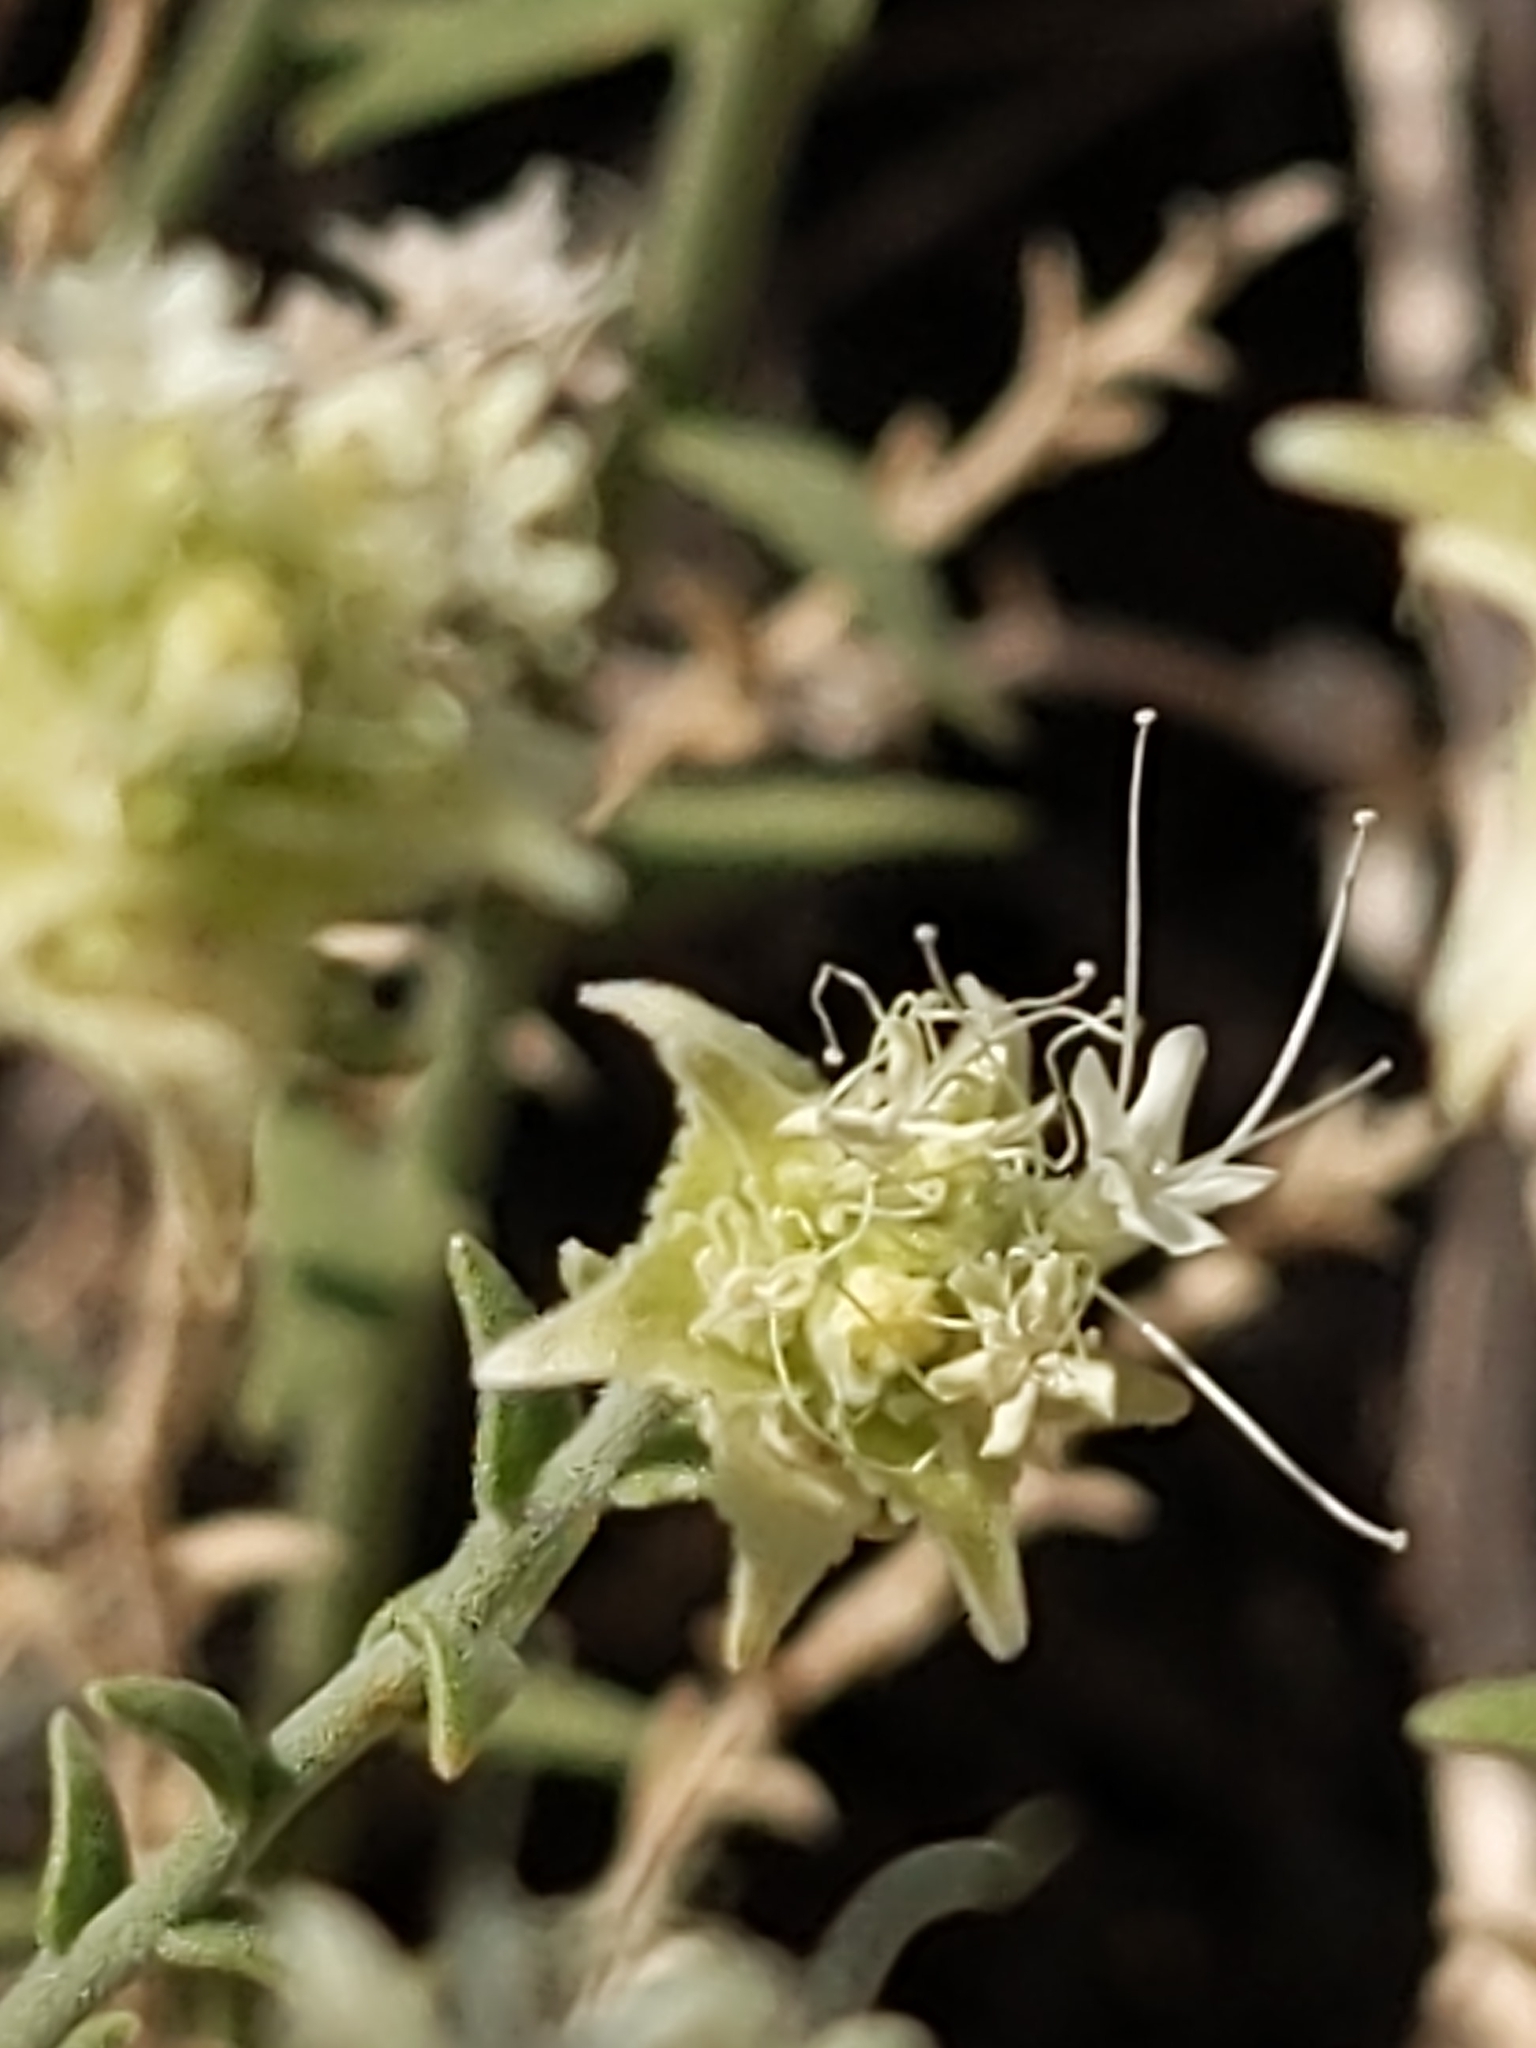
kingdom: Plantae
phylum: Tracheophyta
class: Magnoliopsida
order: Cornales
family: Loasaceae
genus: Petalonyx
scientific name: Petalonyx thurberi
